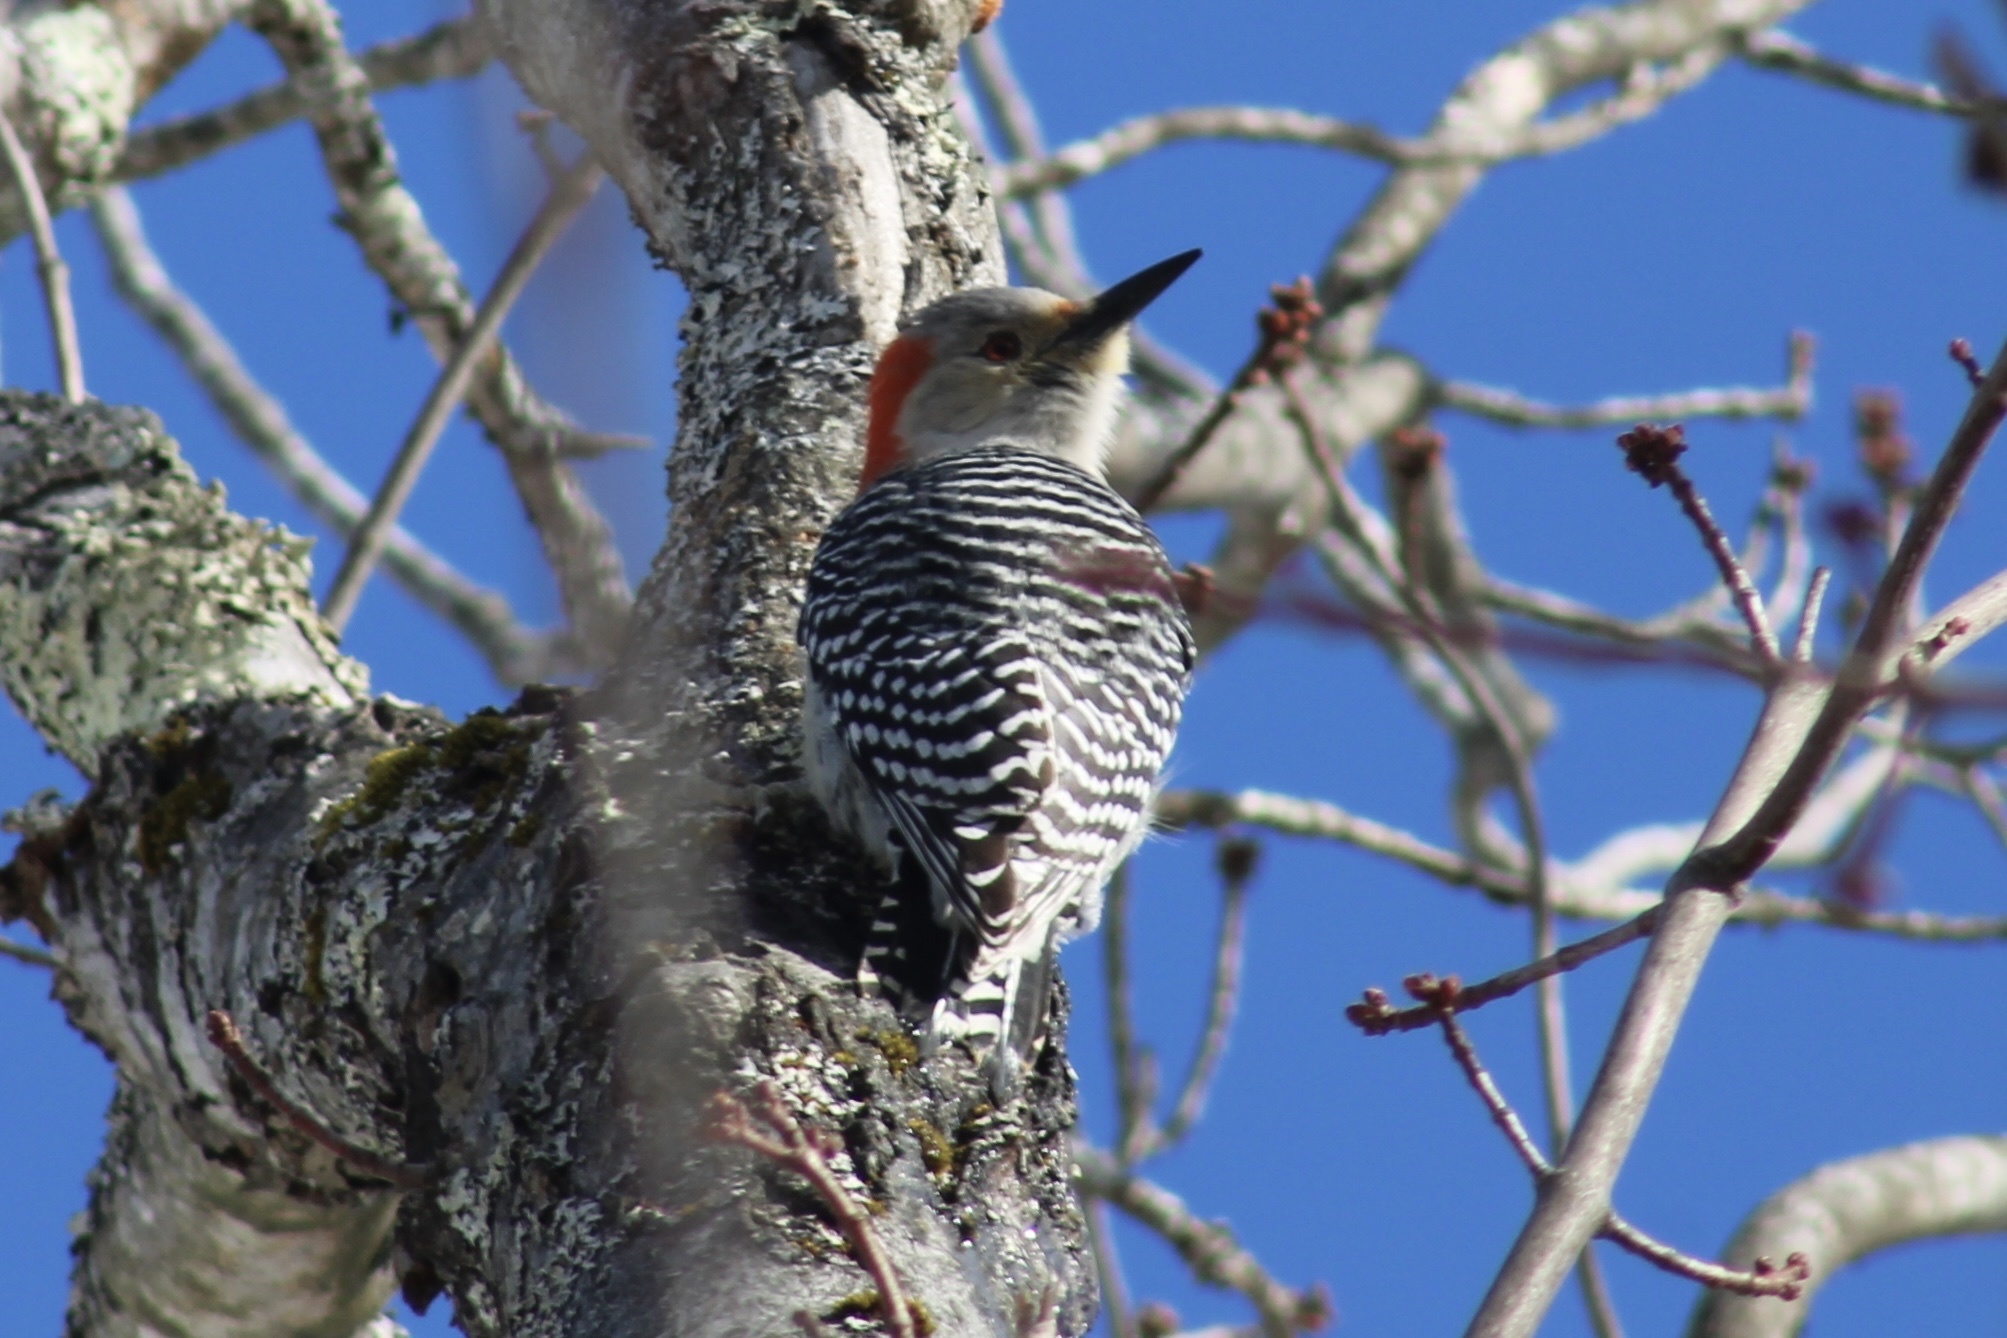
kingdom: Animalia
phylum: Chordata
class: Aves
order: Piciformes
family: Picidae
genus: Melanerpes
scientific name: Melanerpes carolinus
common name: Red-bellied woodpecker
